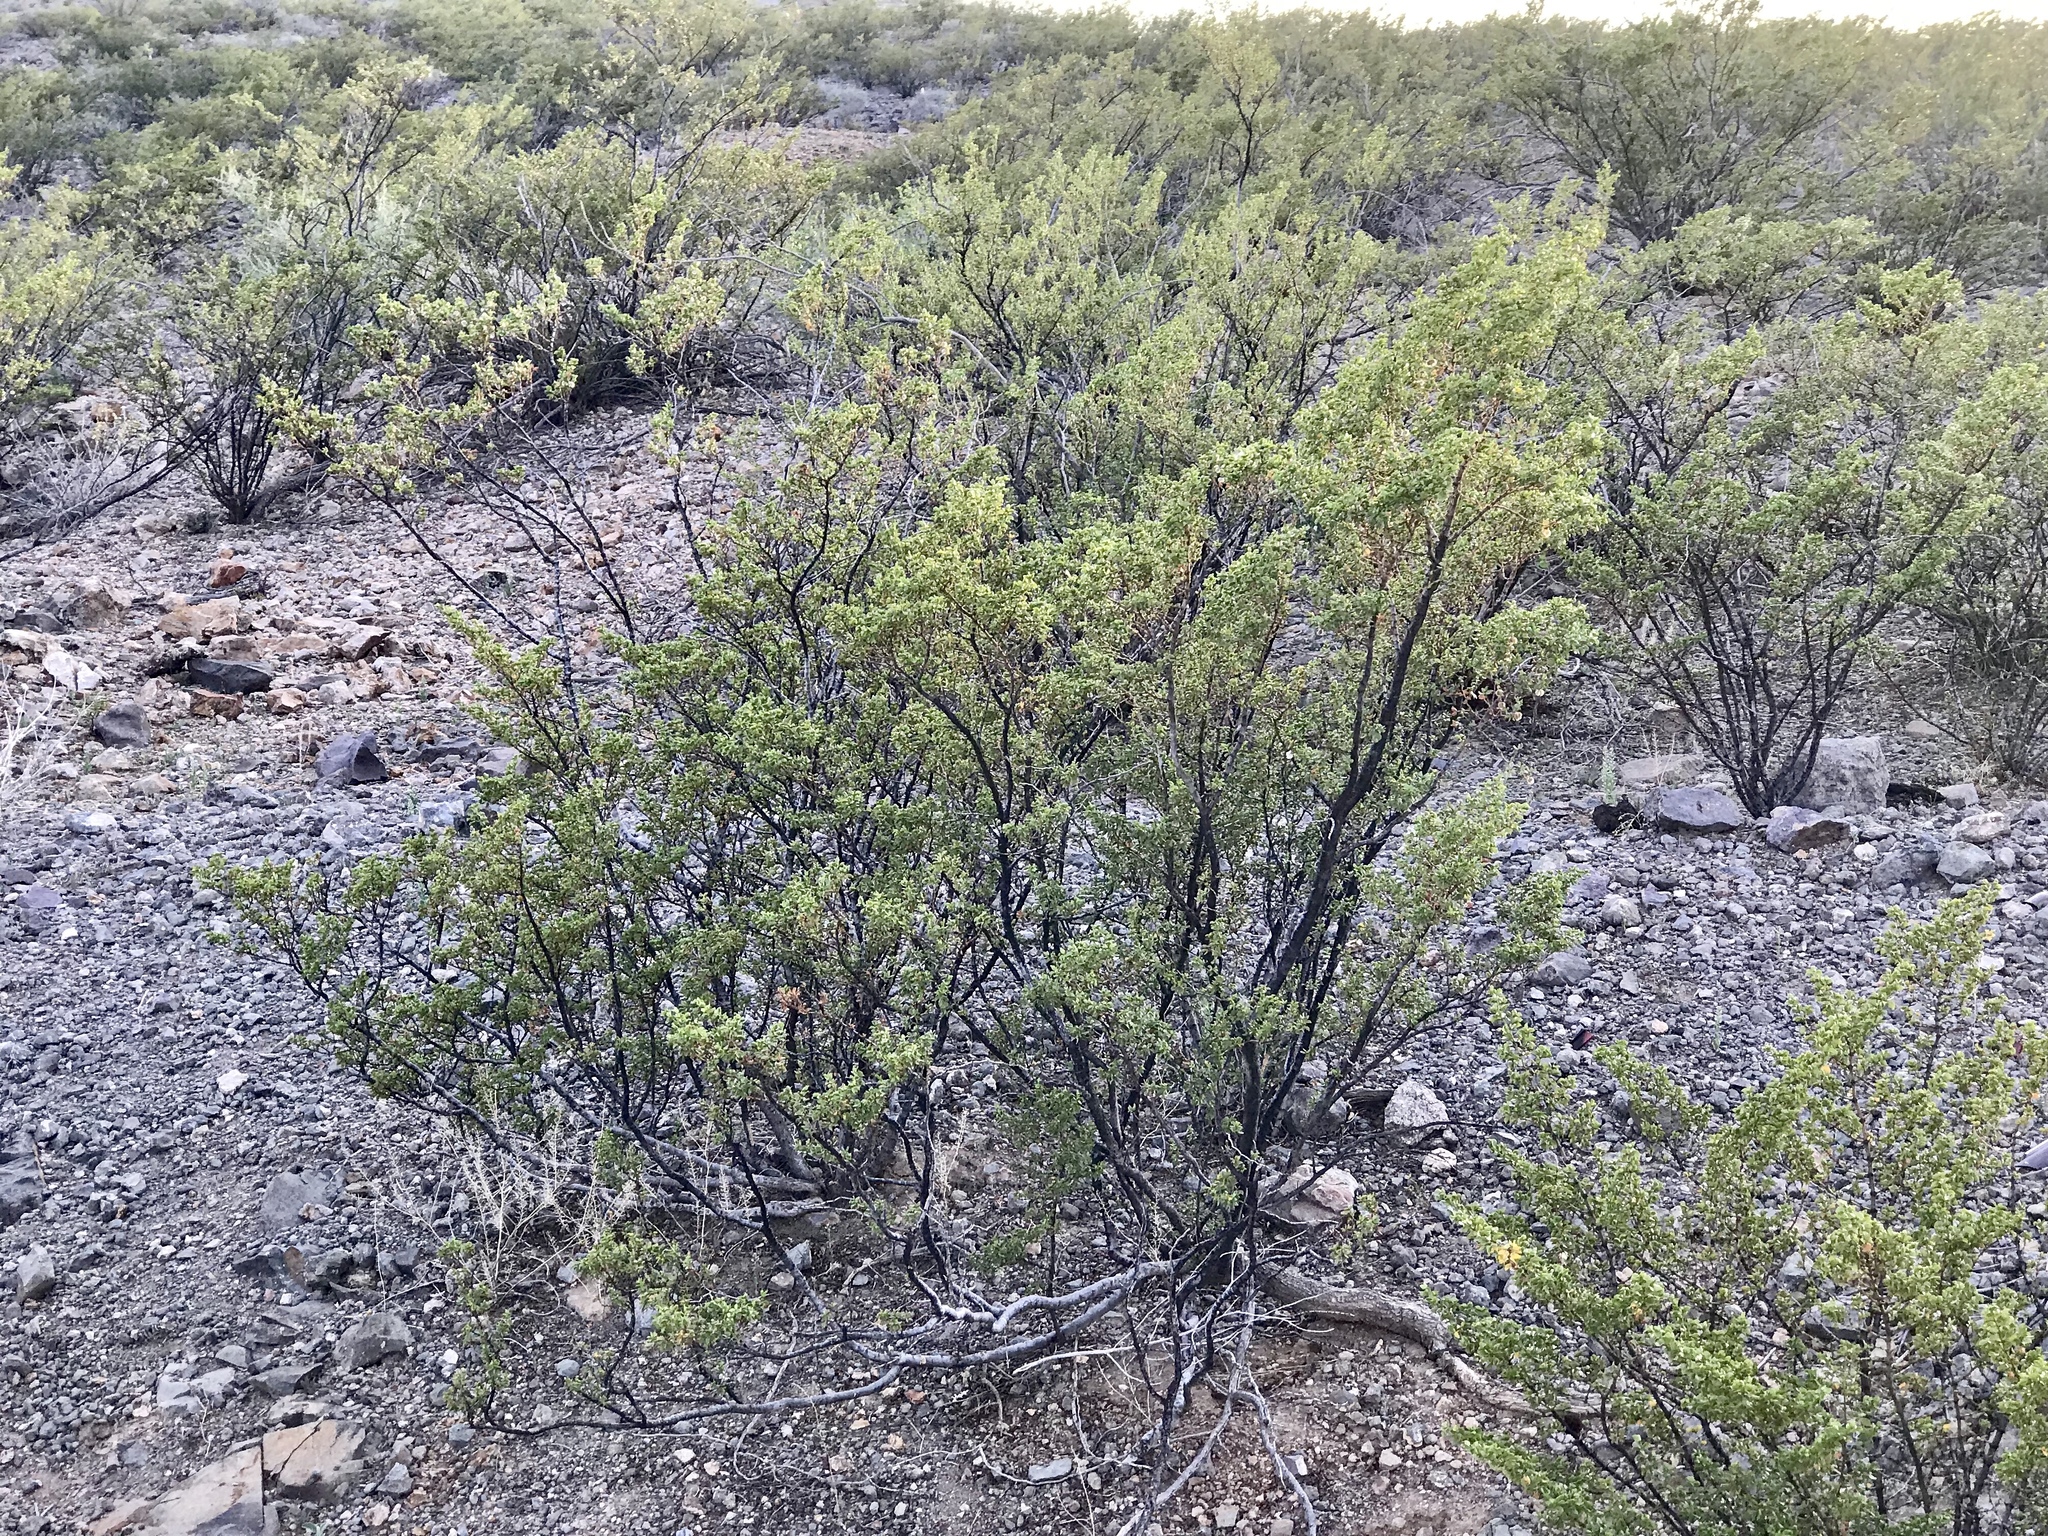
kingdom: Plantae
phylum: Tracheophyta
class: Magnoliopsida
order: Zygophyllales
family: Zygophyllaceae
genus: Larrea
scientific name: Larrea tridentata
